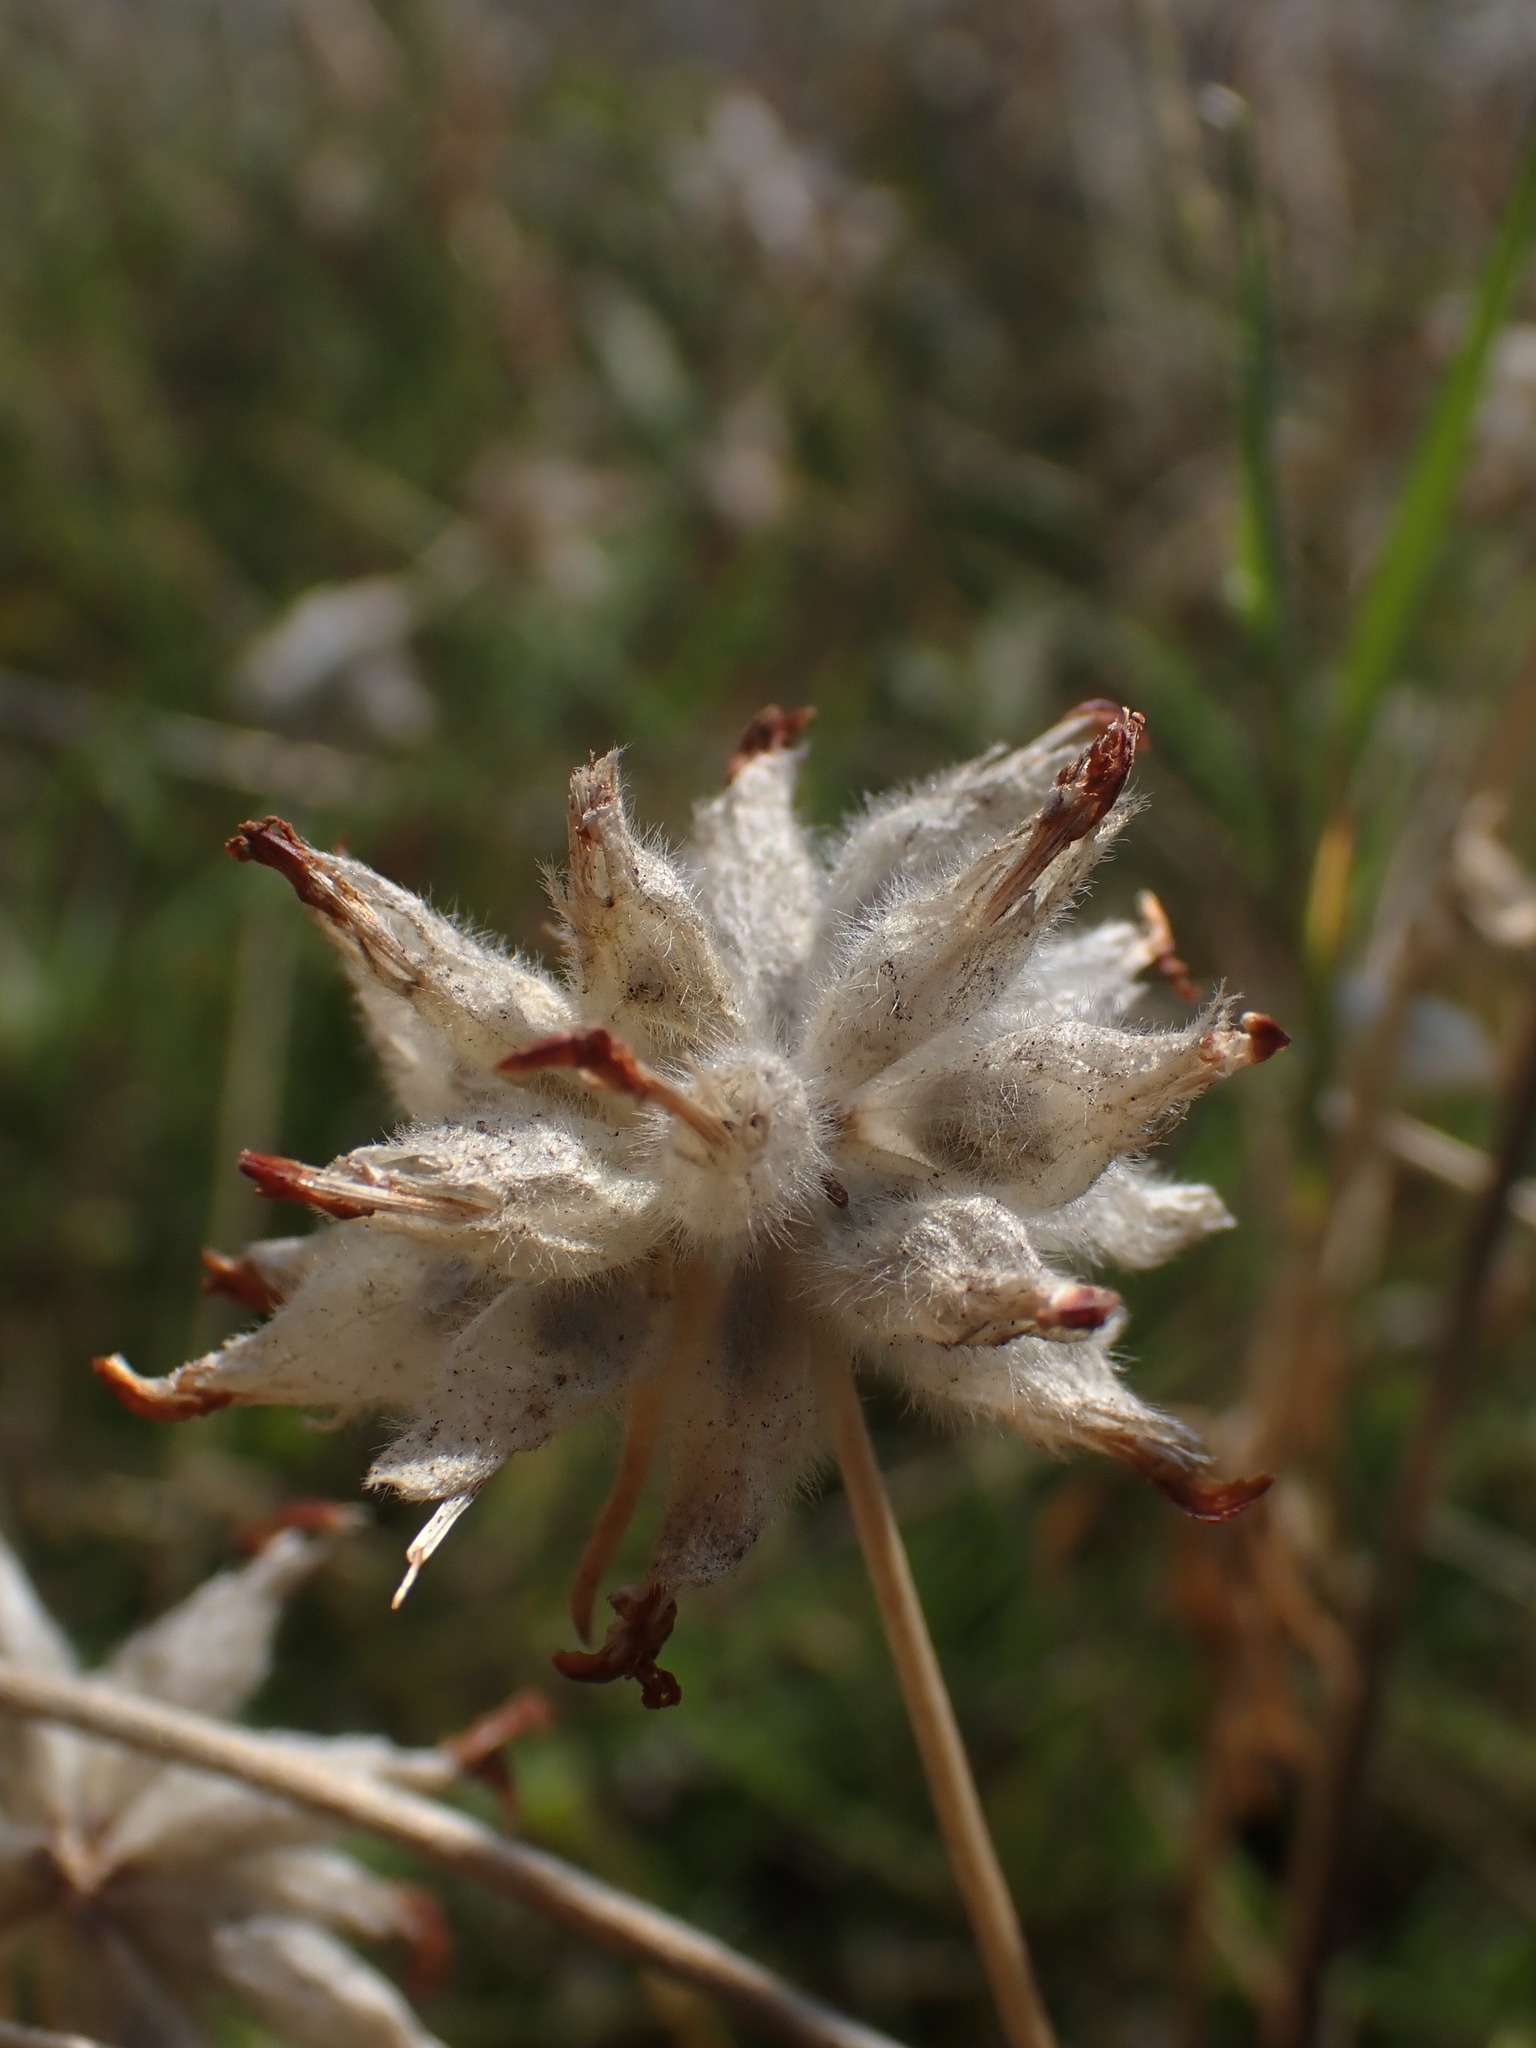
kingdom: Plantae
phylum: Tracheophyta
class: Magnoliopsida
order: Fabales
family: Fabaceae
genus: Anthyllis
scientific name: Anthyllis vulneraria
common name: Kidney vetch
